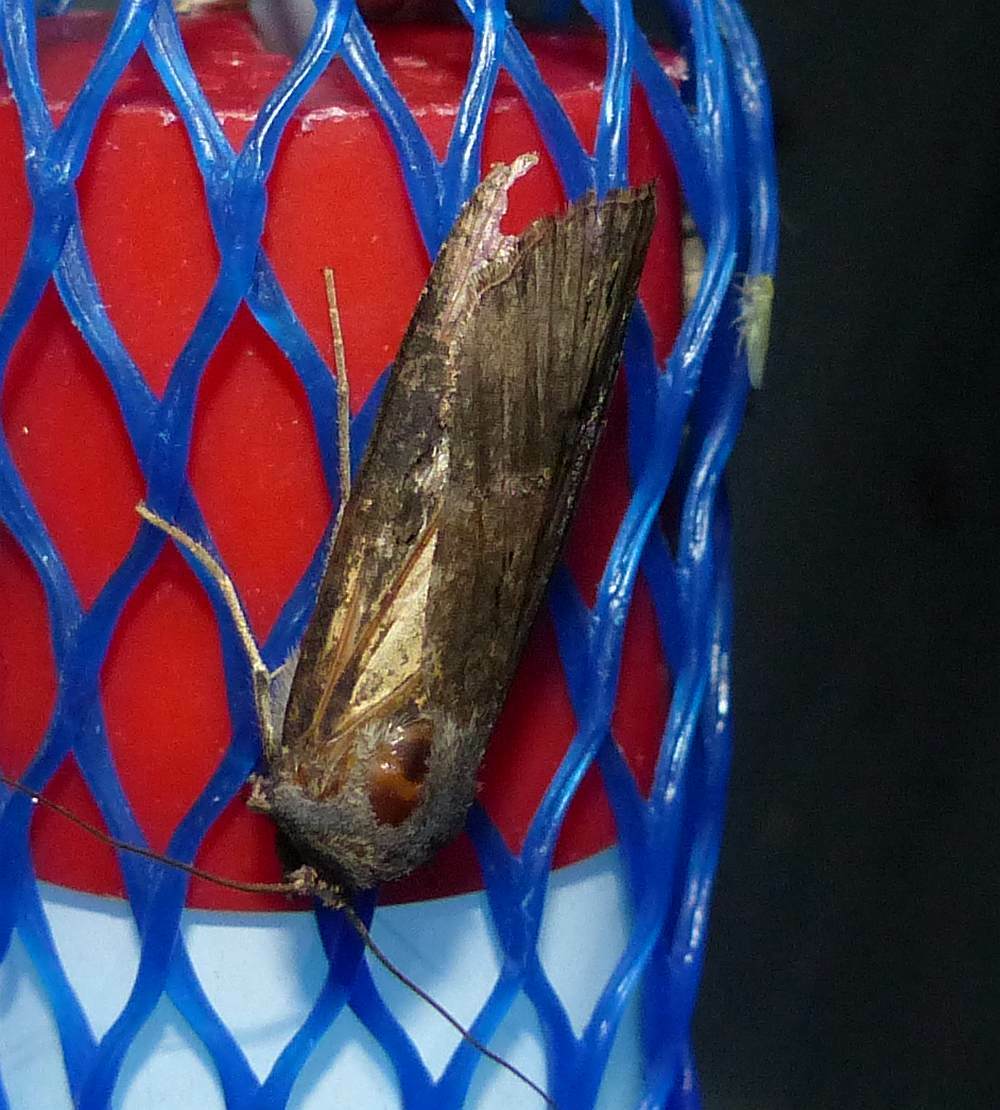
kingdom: Animalia
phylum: Arthropoda
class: Insecta
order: Lepidoptera
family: Noctuidae
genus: Agrotis
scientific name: Agrotis ipsilon
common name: Dark sword-grass
